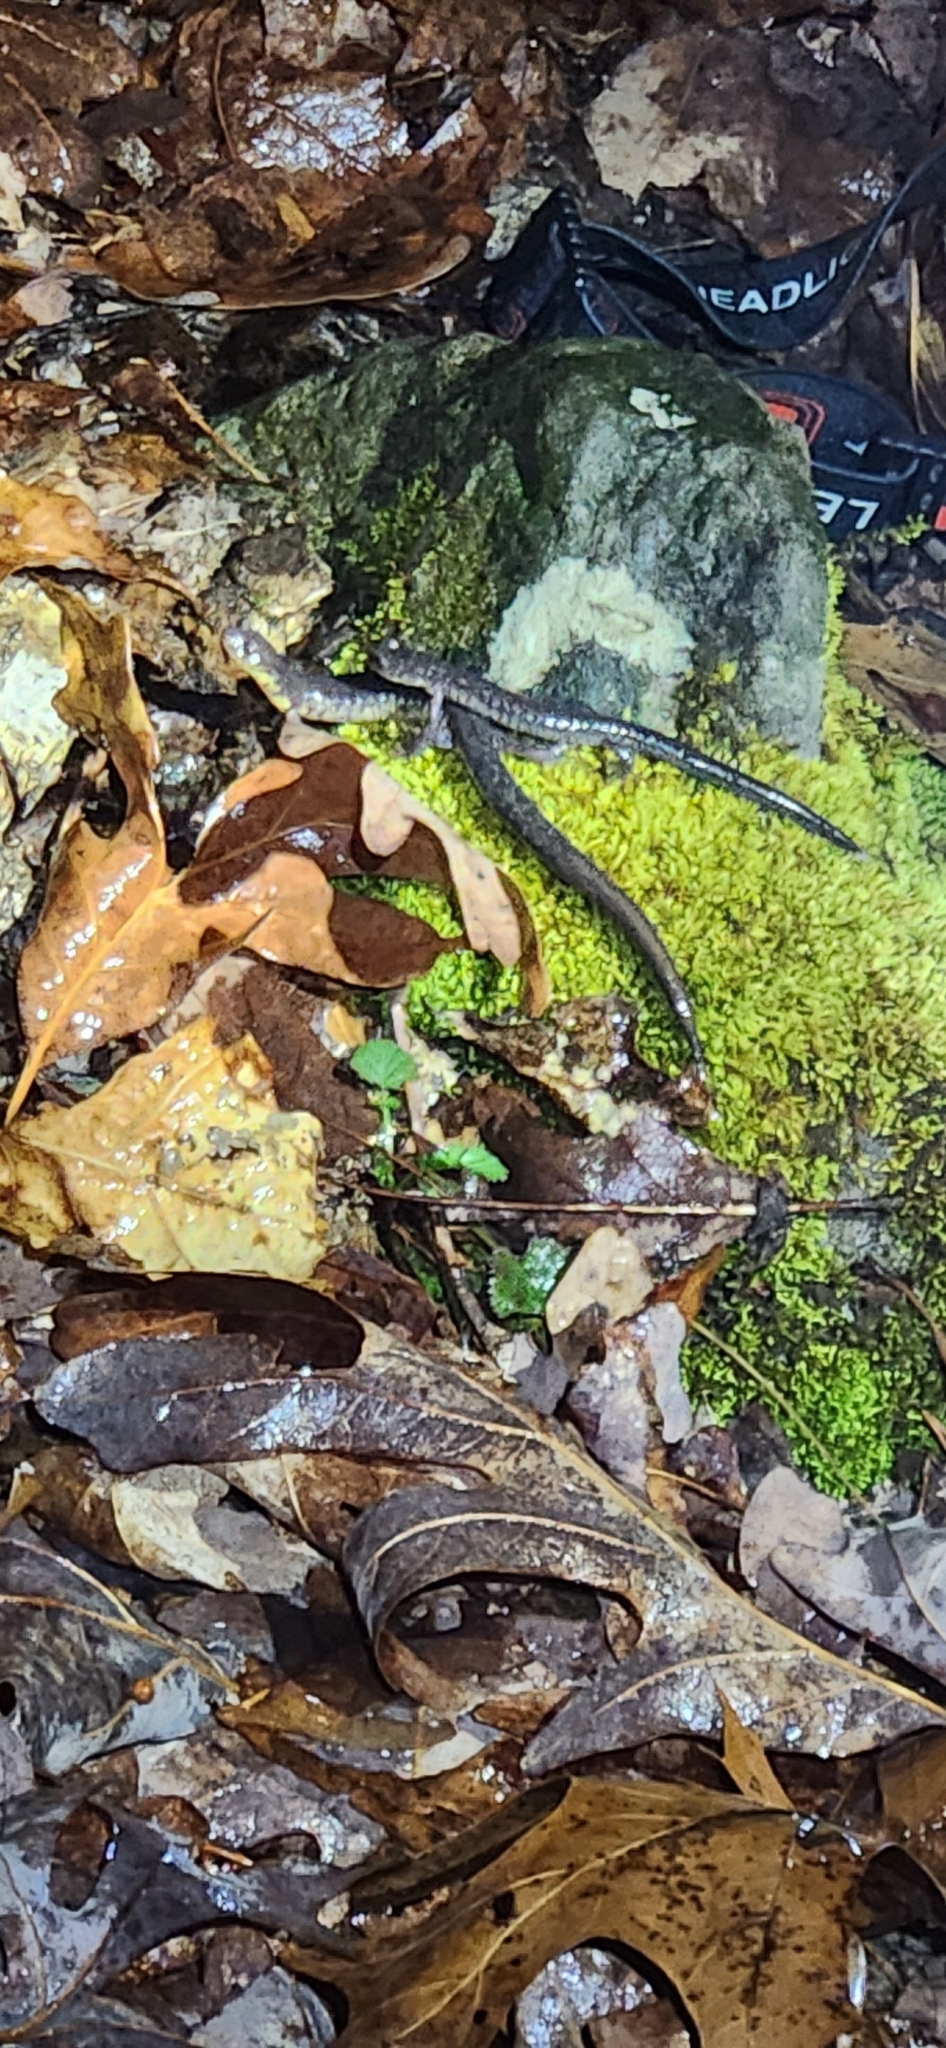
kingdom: Animalia
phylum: Chordata
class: Amphibia
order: Caudata
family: Plethodontidae
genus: Plethodon
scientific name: Plethodon jacksoni
